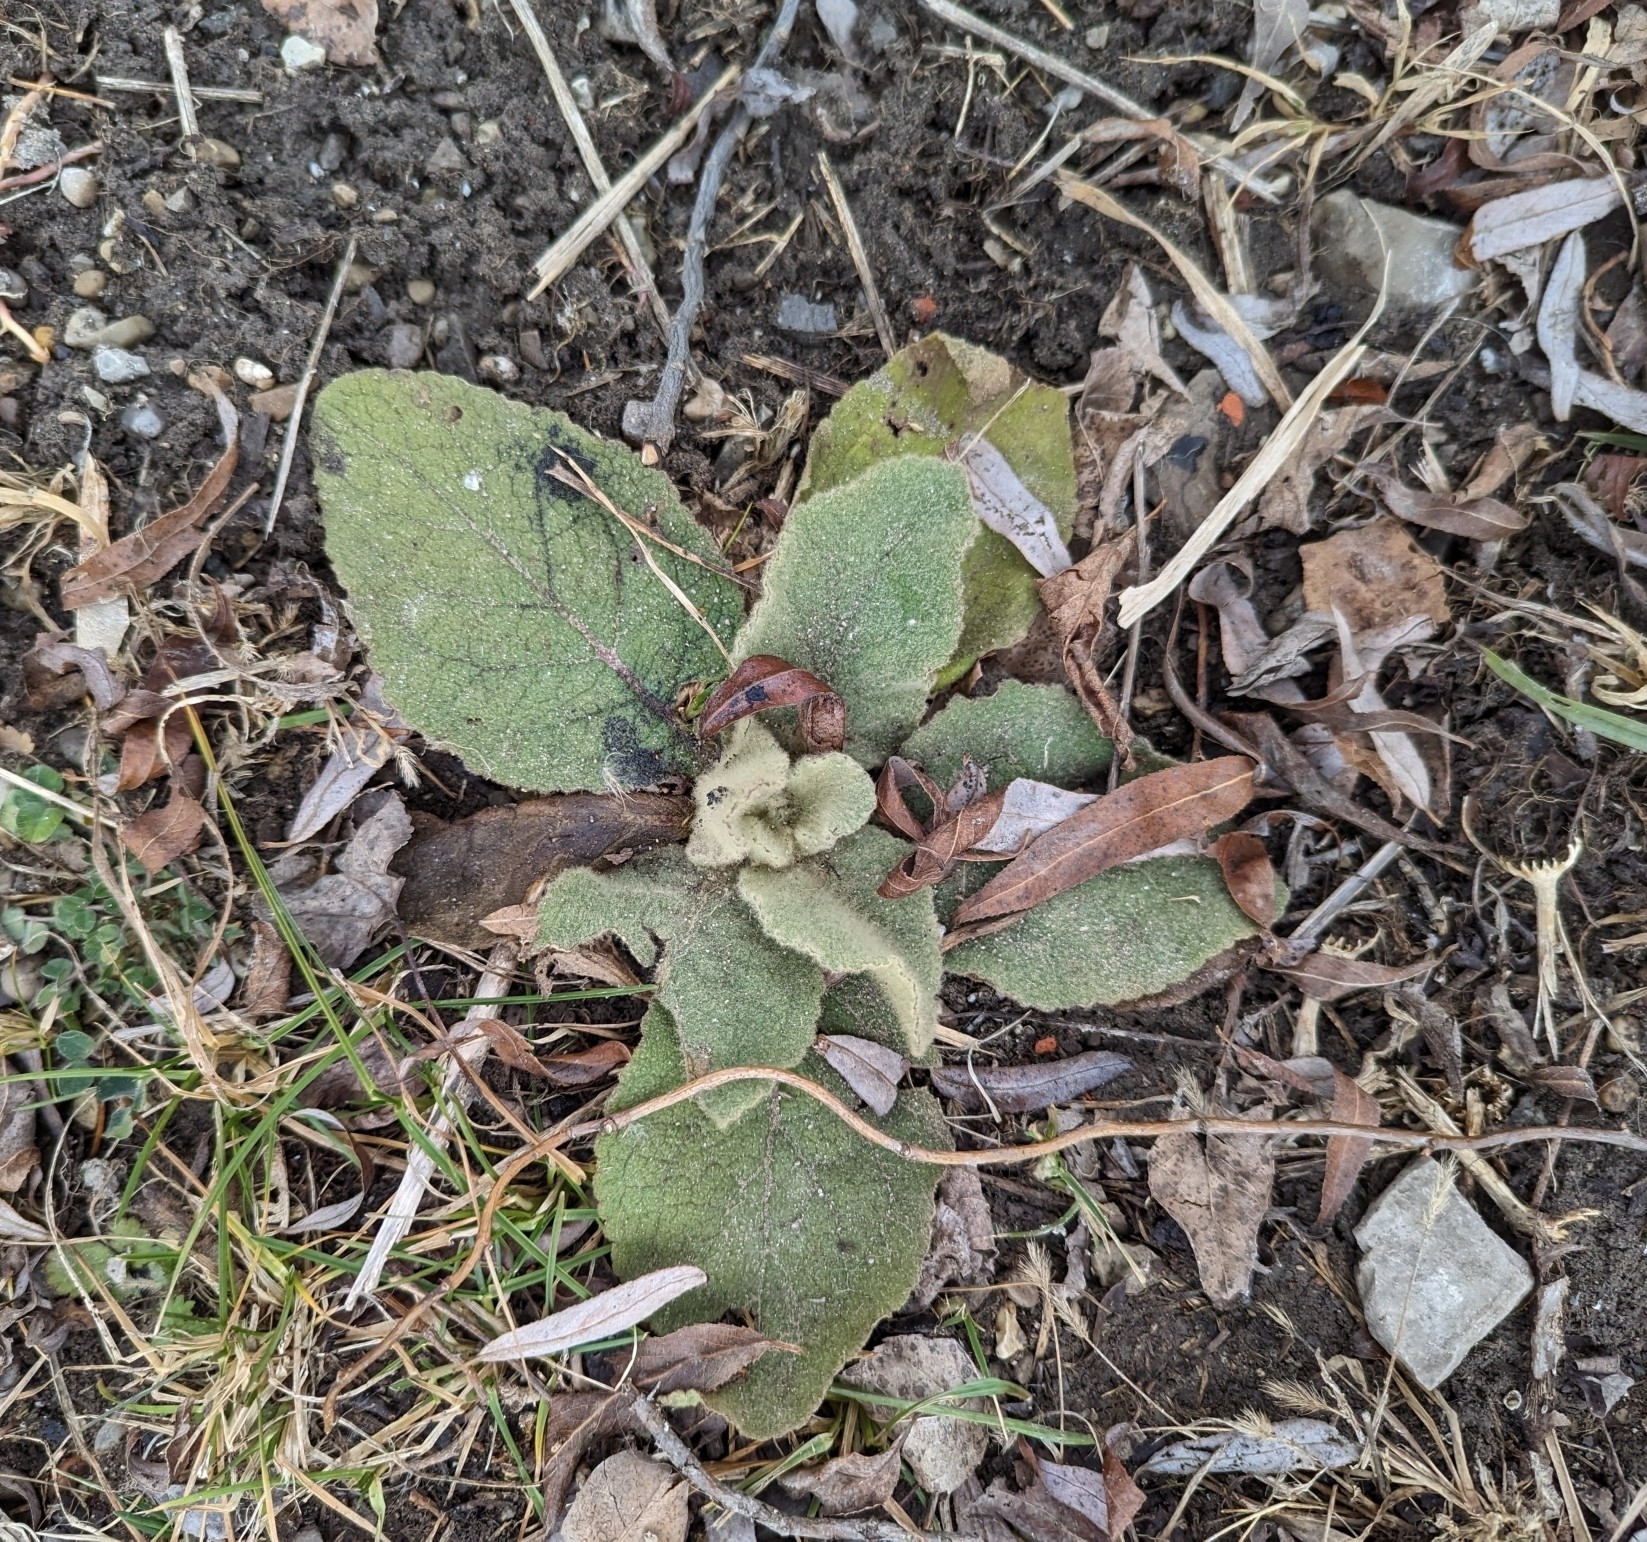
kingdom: Plantae
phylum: Tracheophyta
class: Magnoliopsida
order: Lamiales
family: Scrophulariaceae
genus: Verbascum
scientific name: Verbascum thapsus
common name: Common mullein
